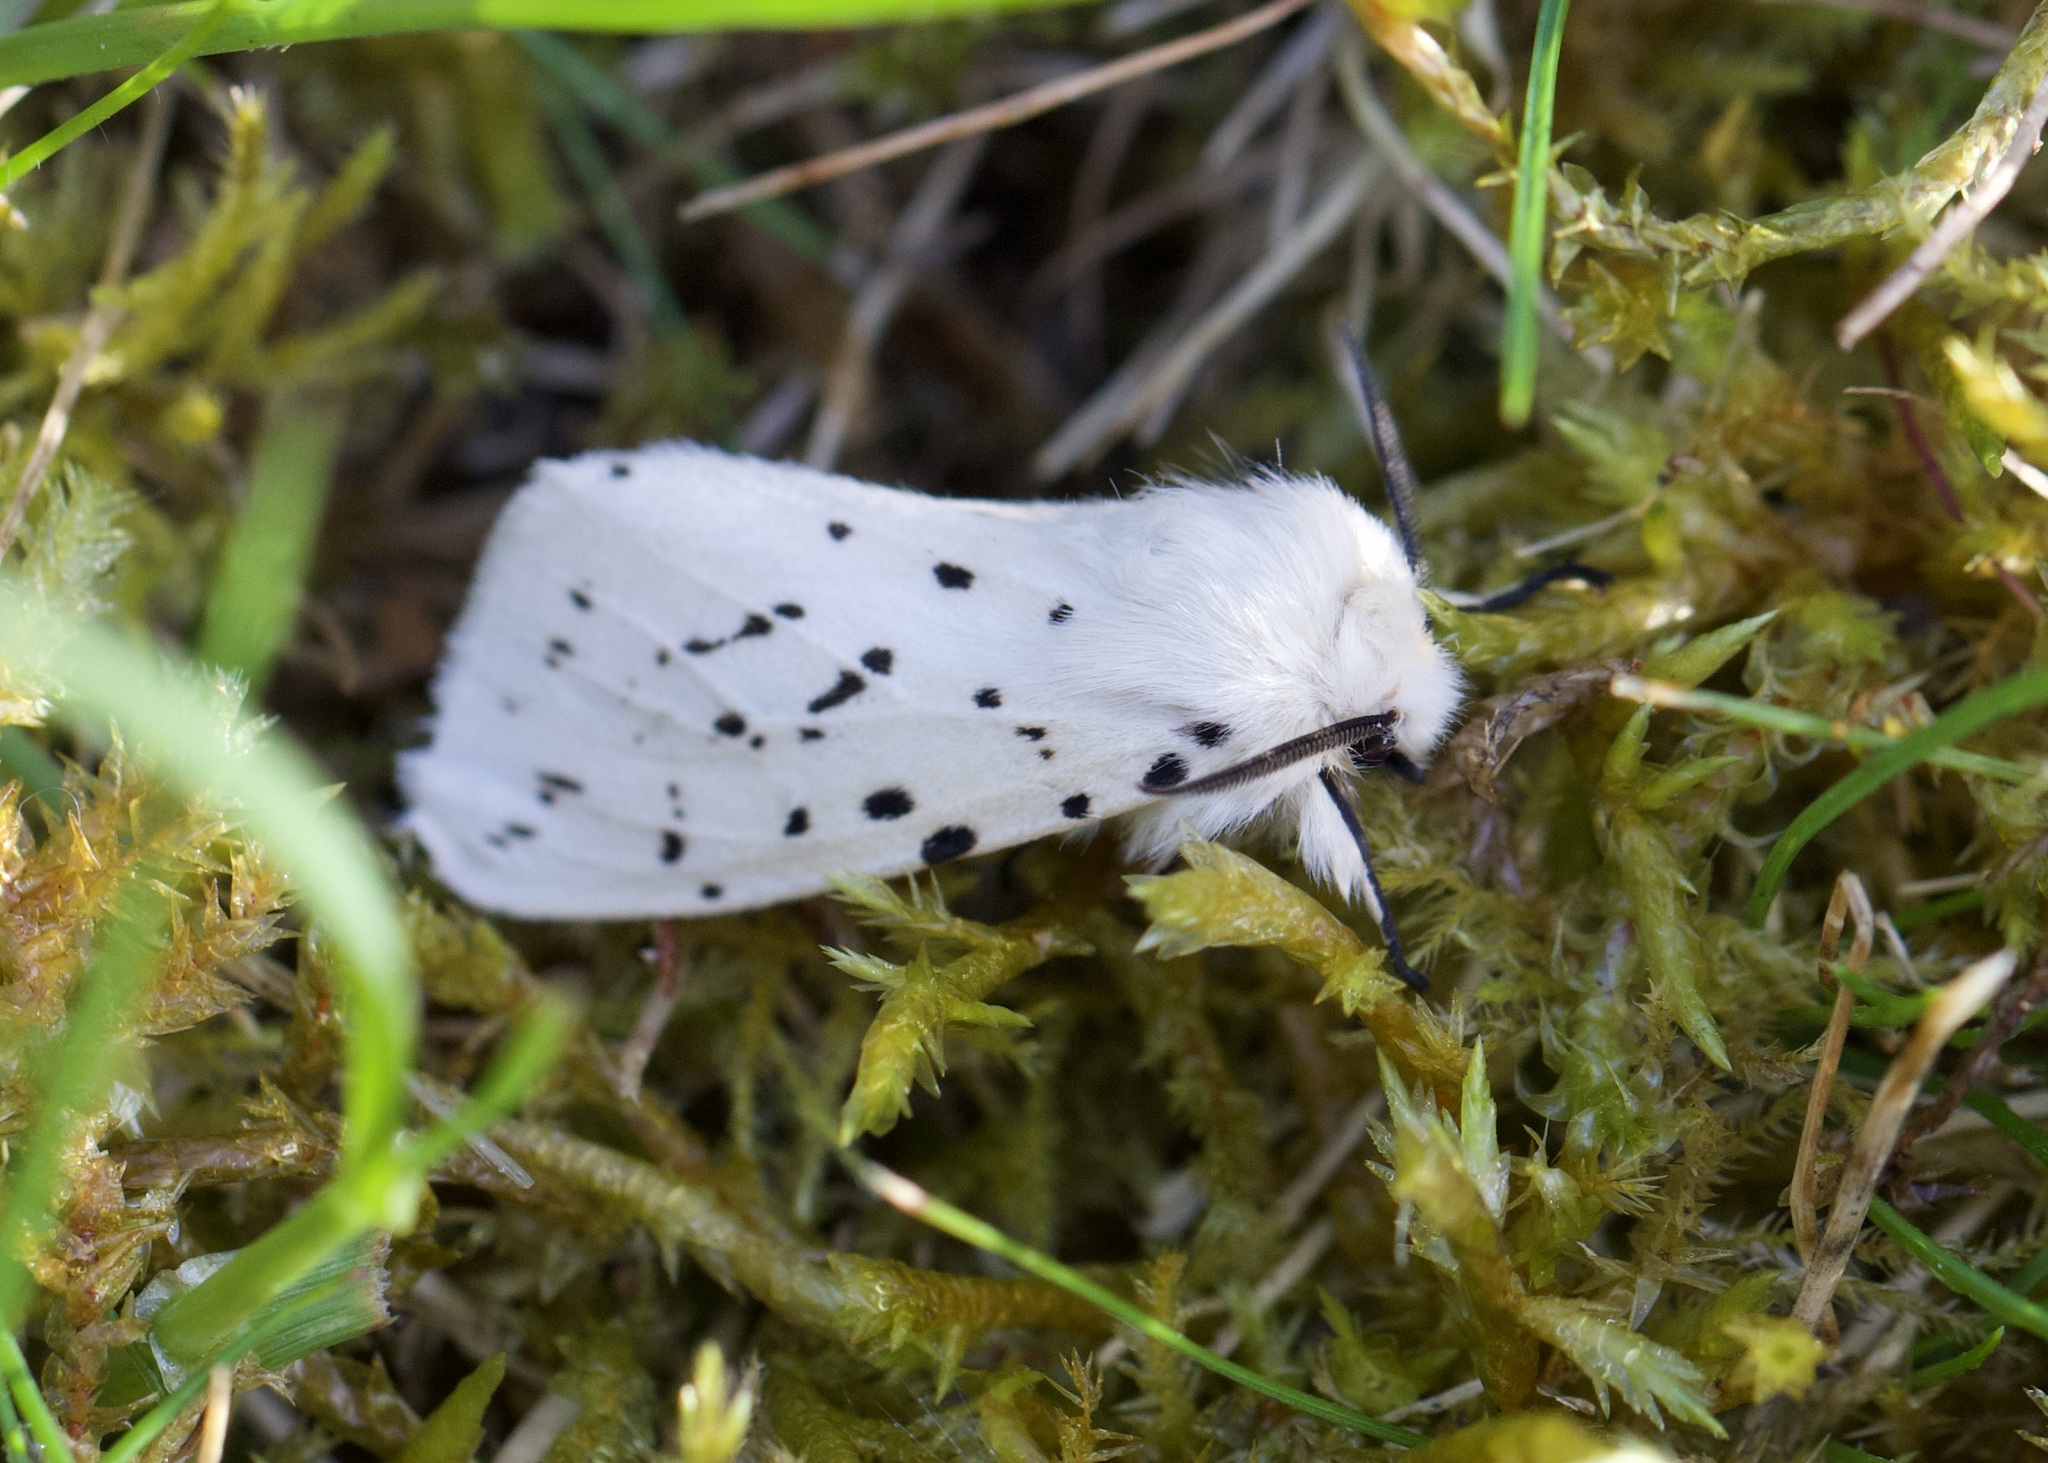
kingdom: Animalia
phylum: Arthropoda
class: Insecta
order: Lepidoptera
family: Erebidae
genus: Spilosoma
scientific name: Spilosoma lubricipeda
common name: White ermine
